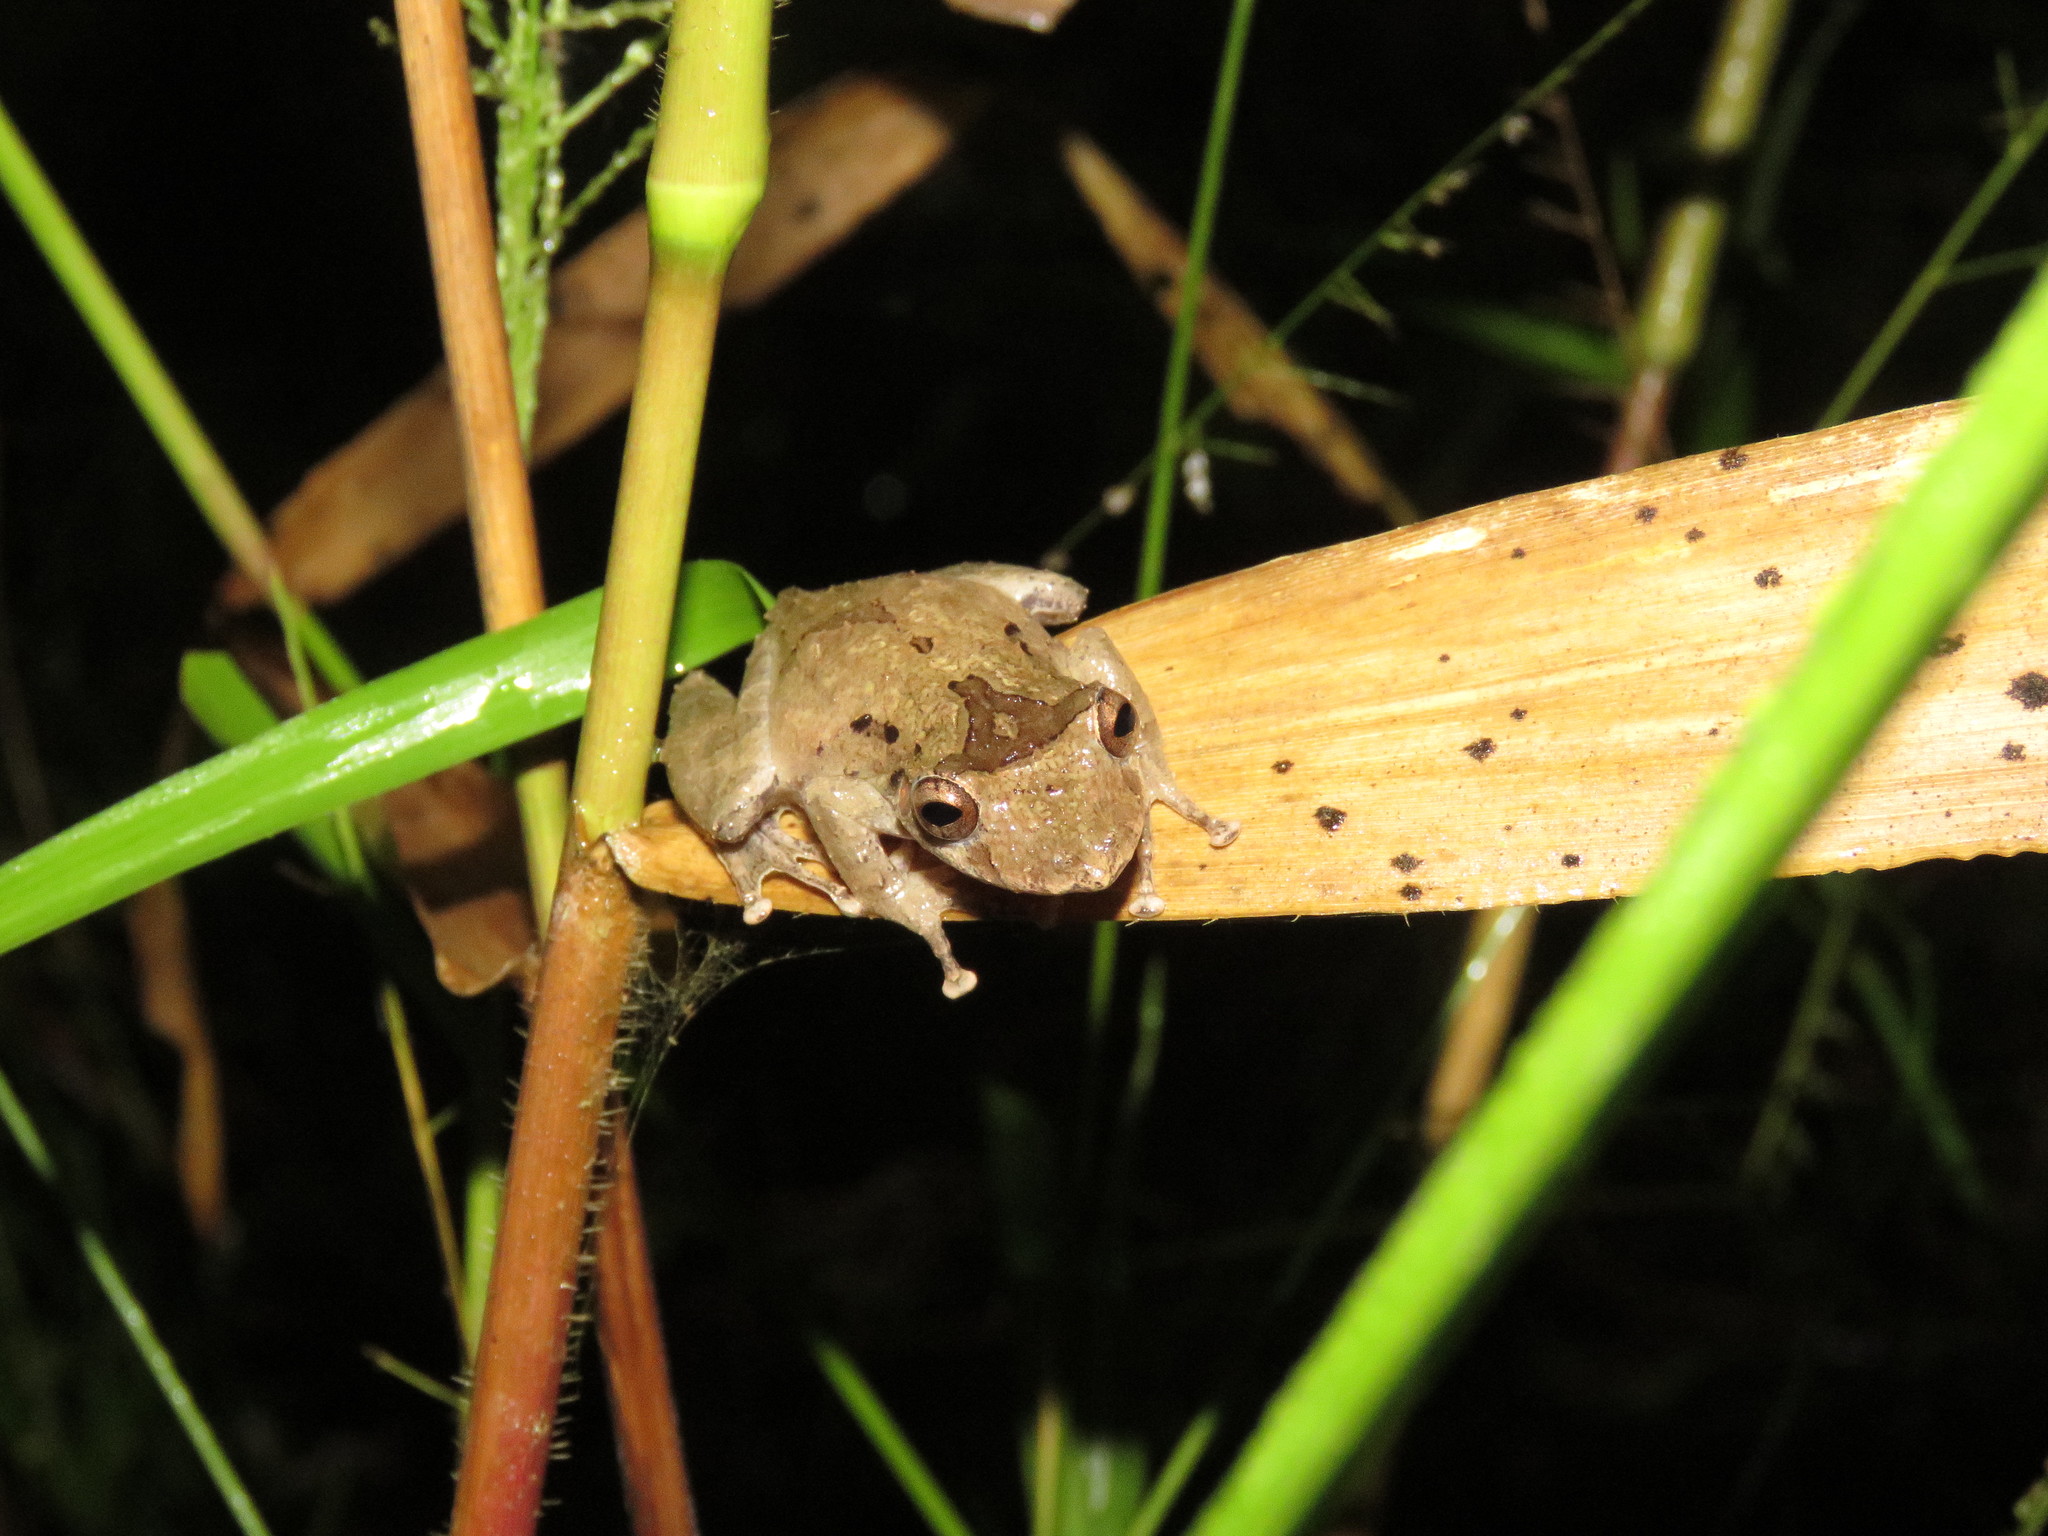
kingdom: Animalia
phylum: Chordata
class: Amphibia
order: Anura
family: Hylidae
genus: Scinax
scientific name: Scinax nebulosus
